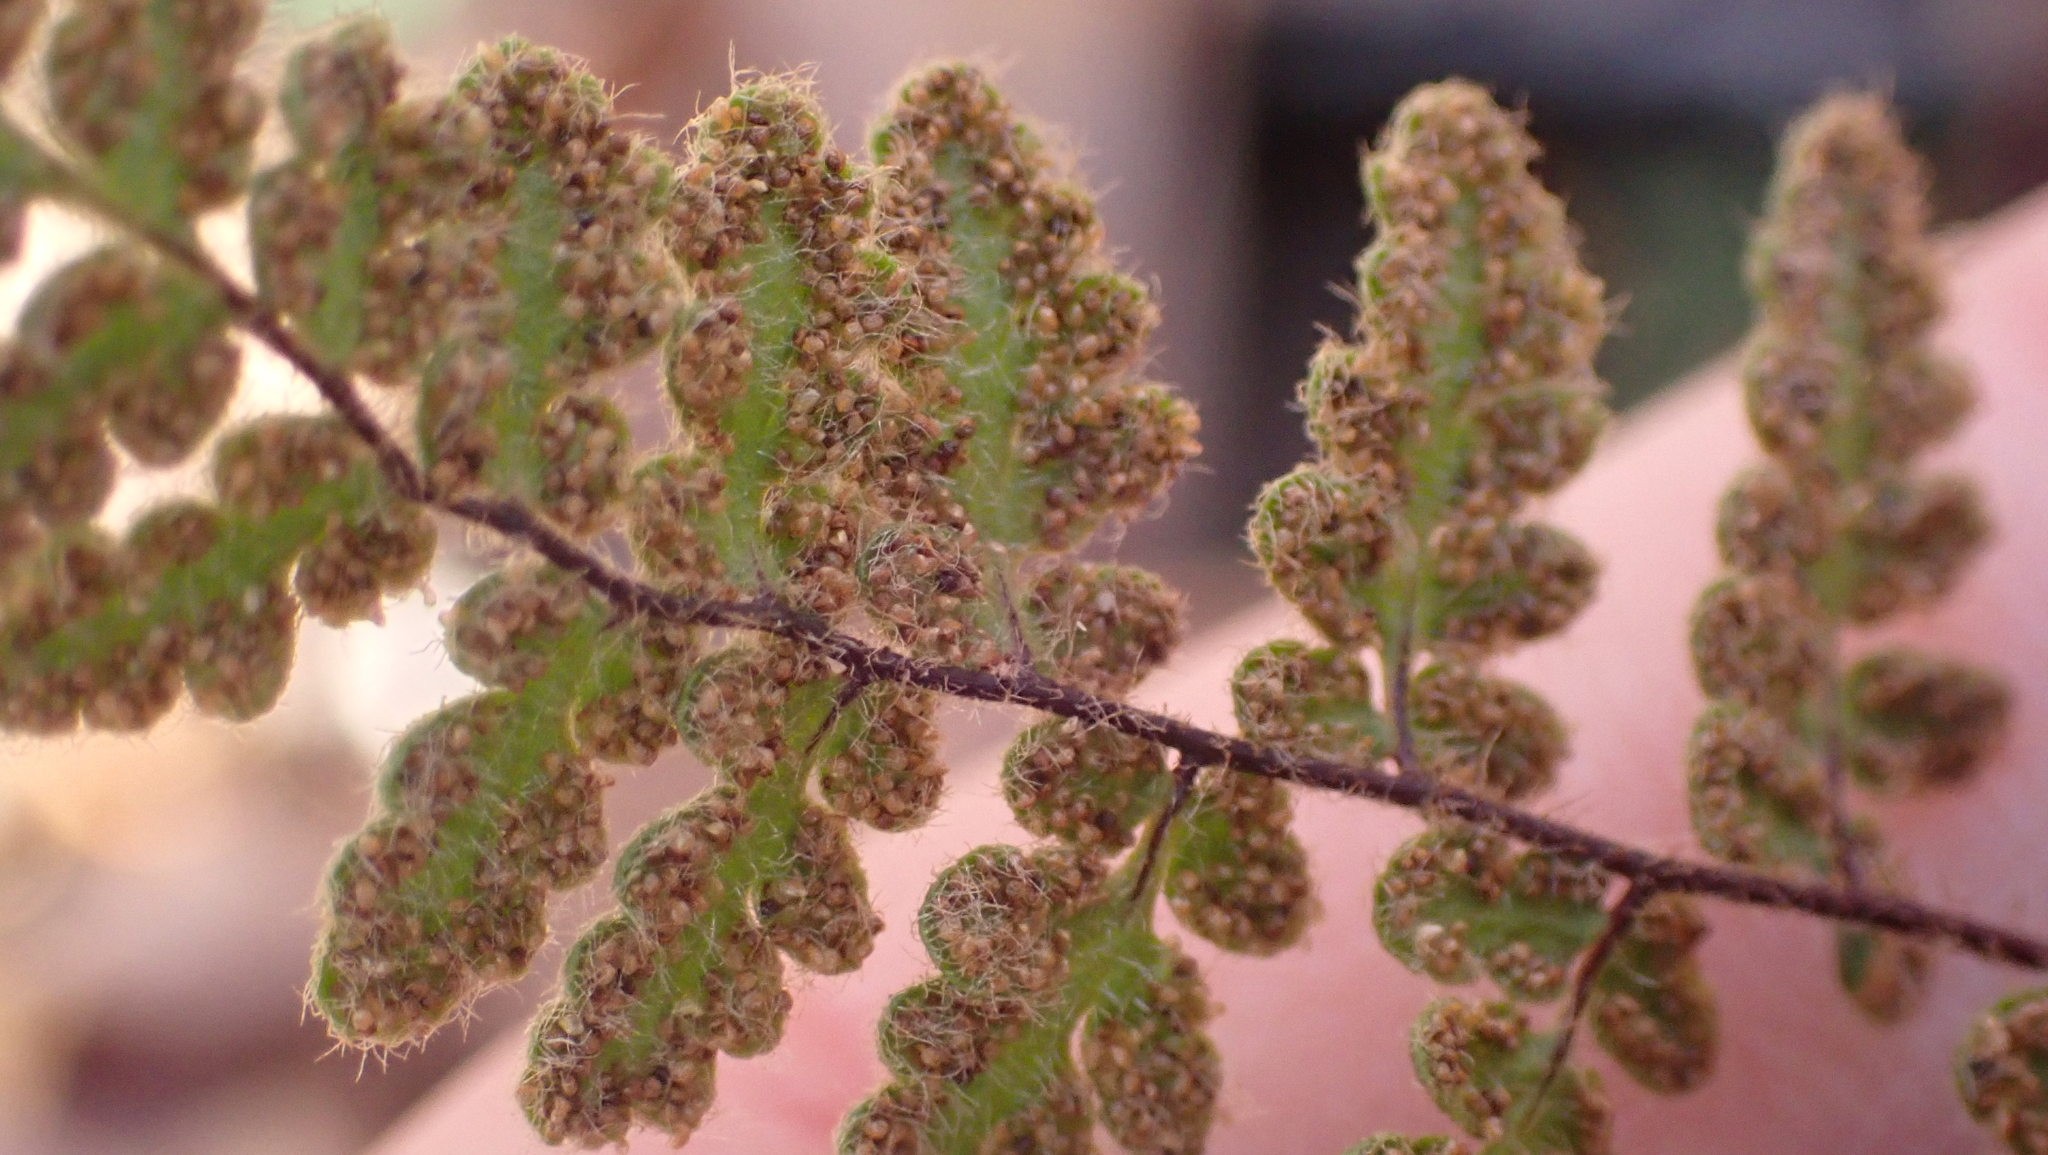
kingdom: Plantae
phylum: Tracheophyta
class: Polypodiopsida
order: Polypodiales
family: Pteridaceae
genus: Myriopteris
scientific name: Myriopteris lanosa
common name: Hairy lip fern
